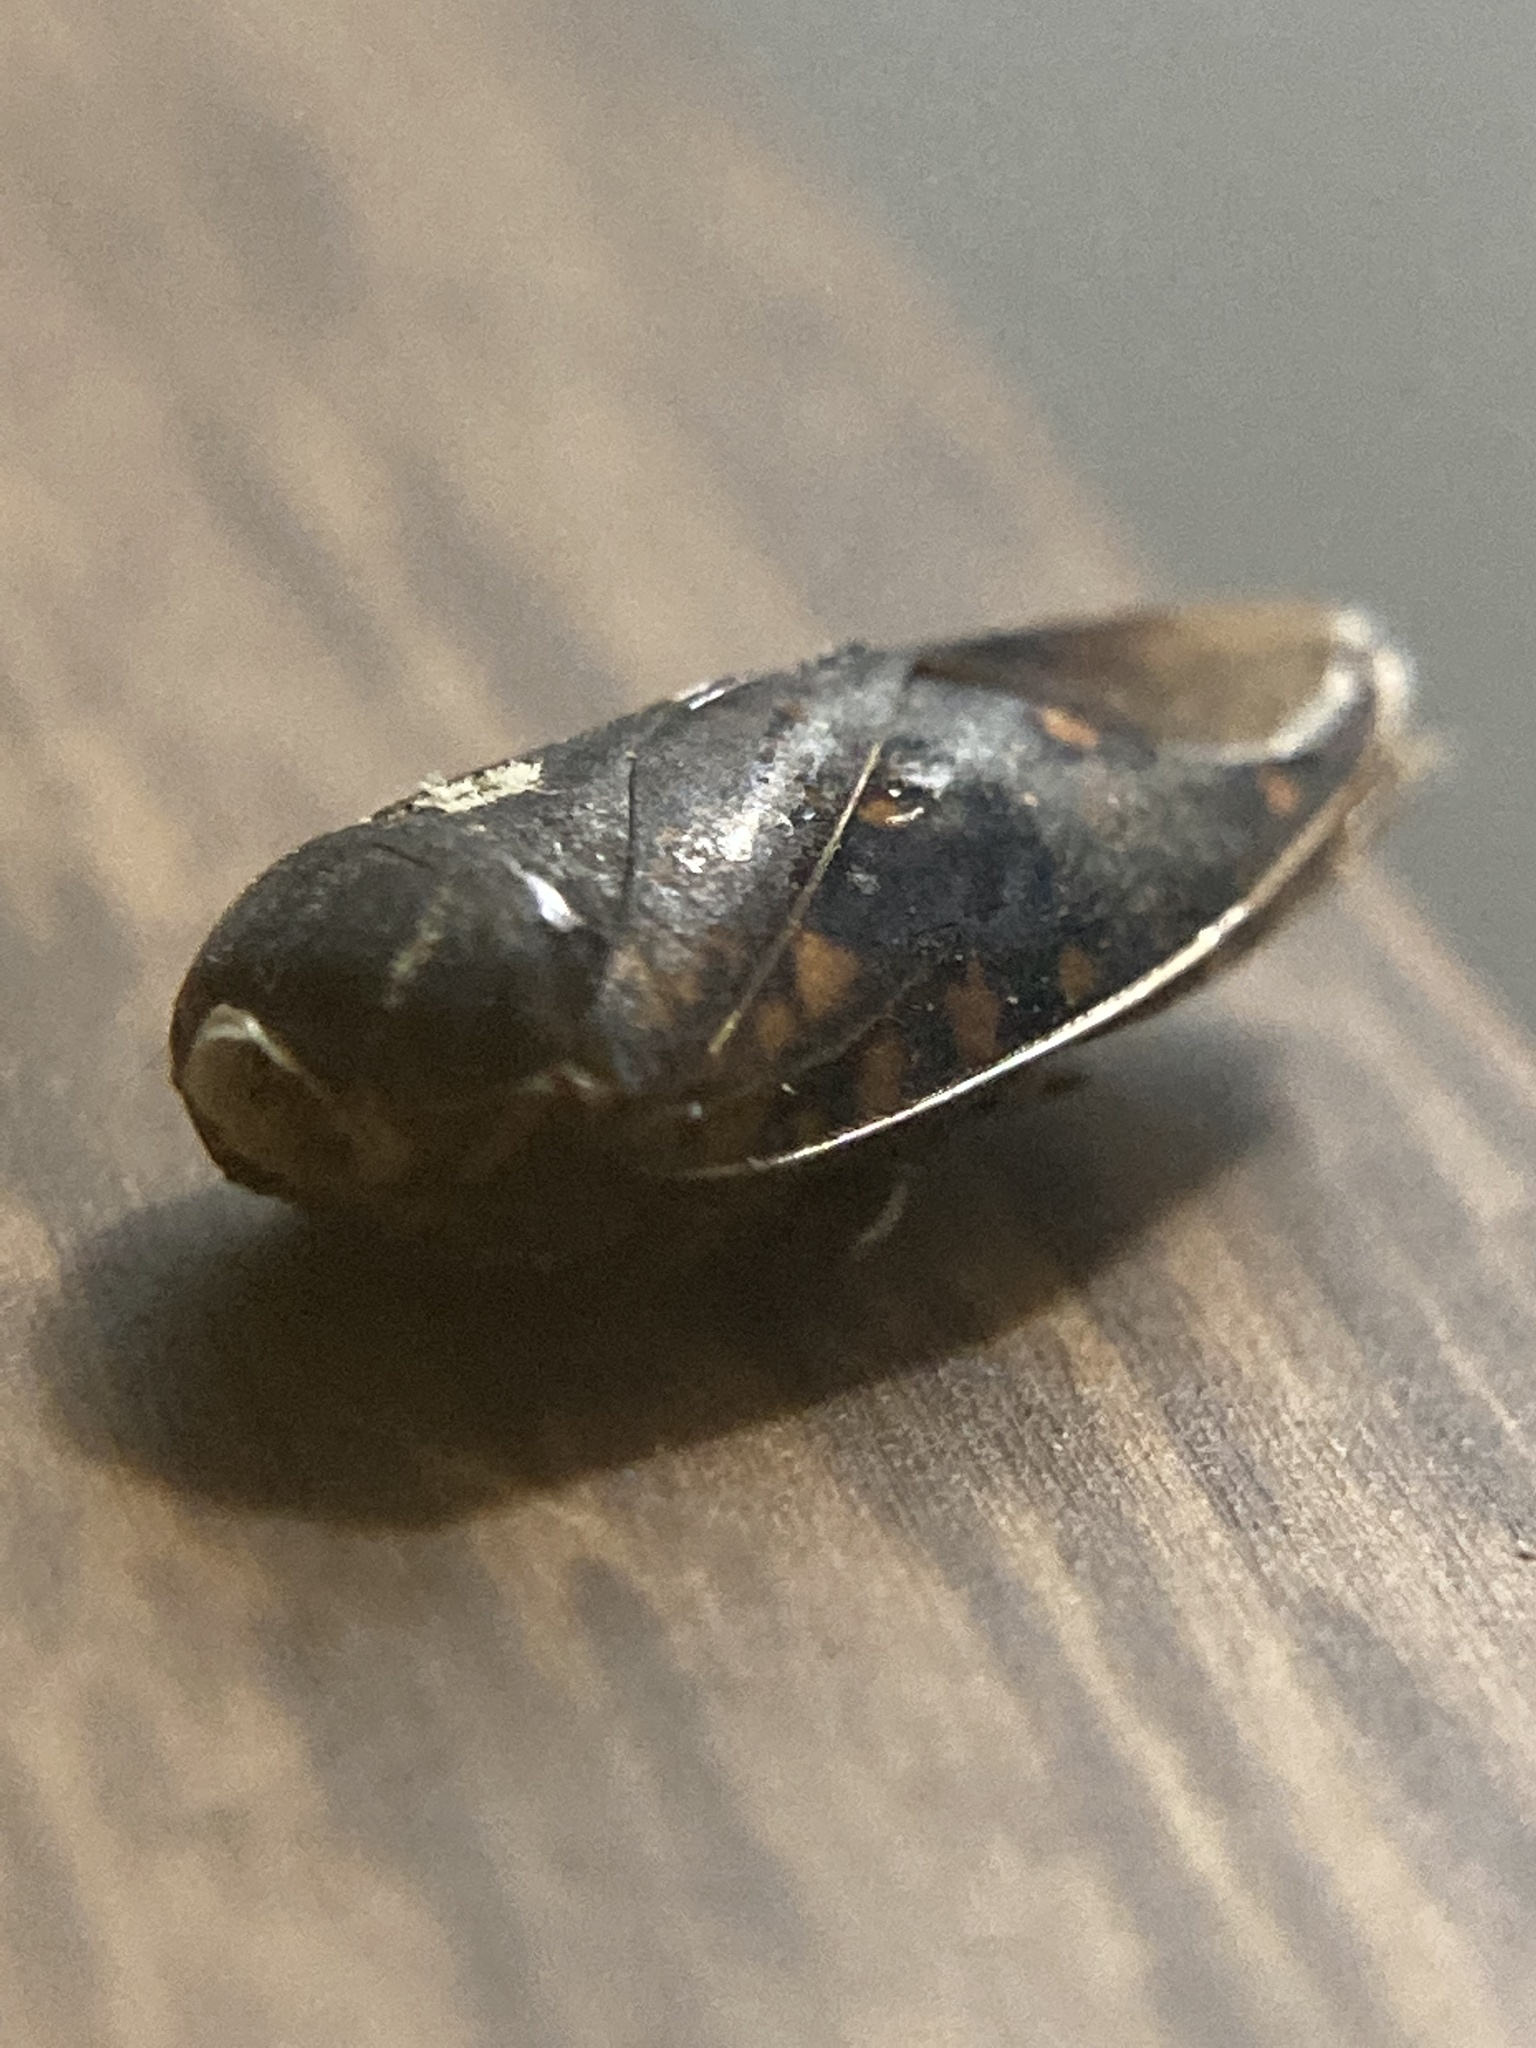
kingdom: Animalia
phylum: Arthropoda
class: Insecta
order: Hemiptera
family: Notonectidae
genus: Notonecta
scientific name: Notonecta irrorata
